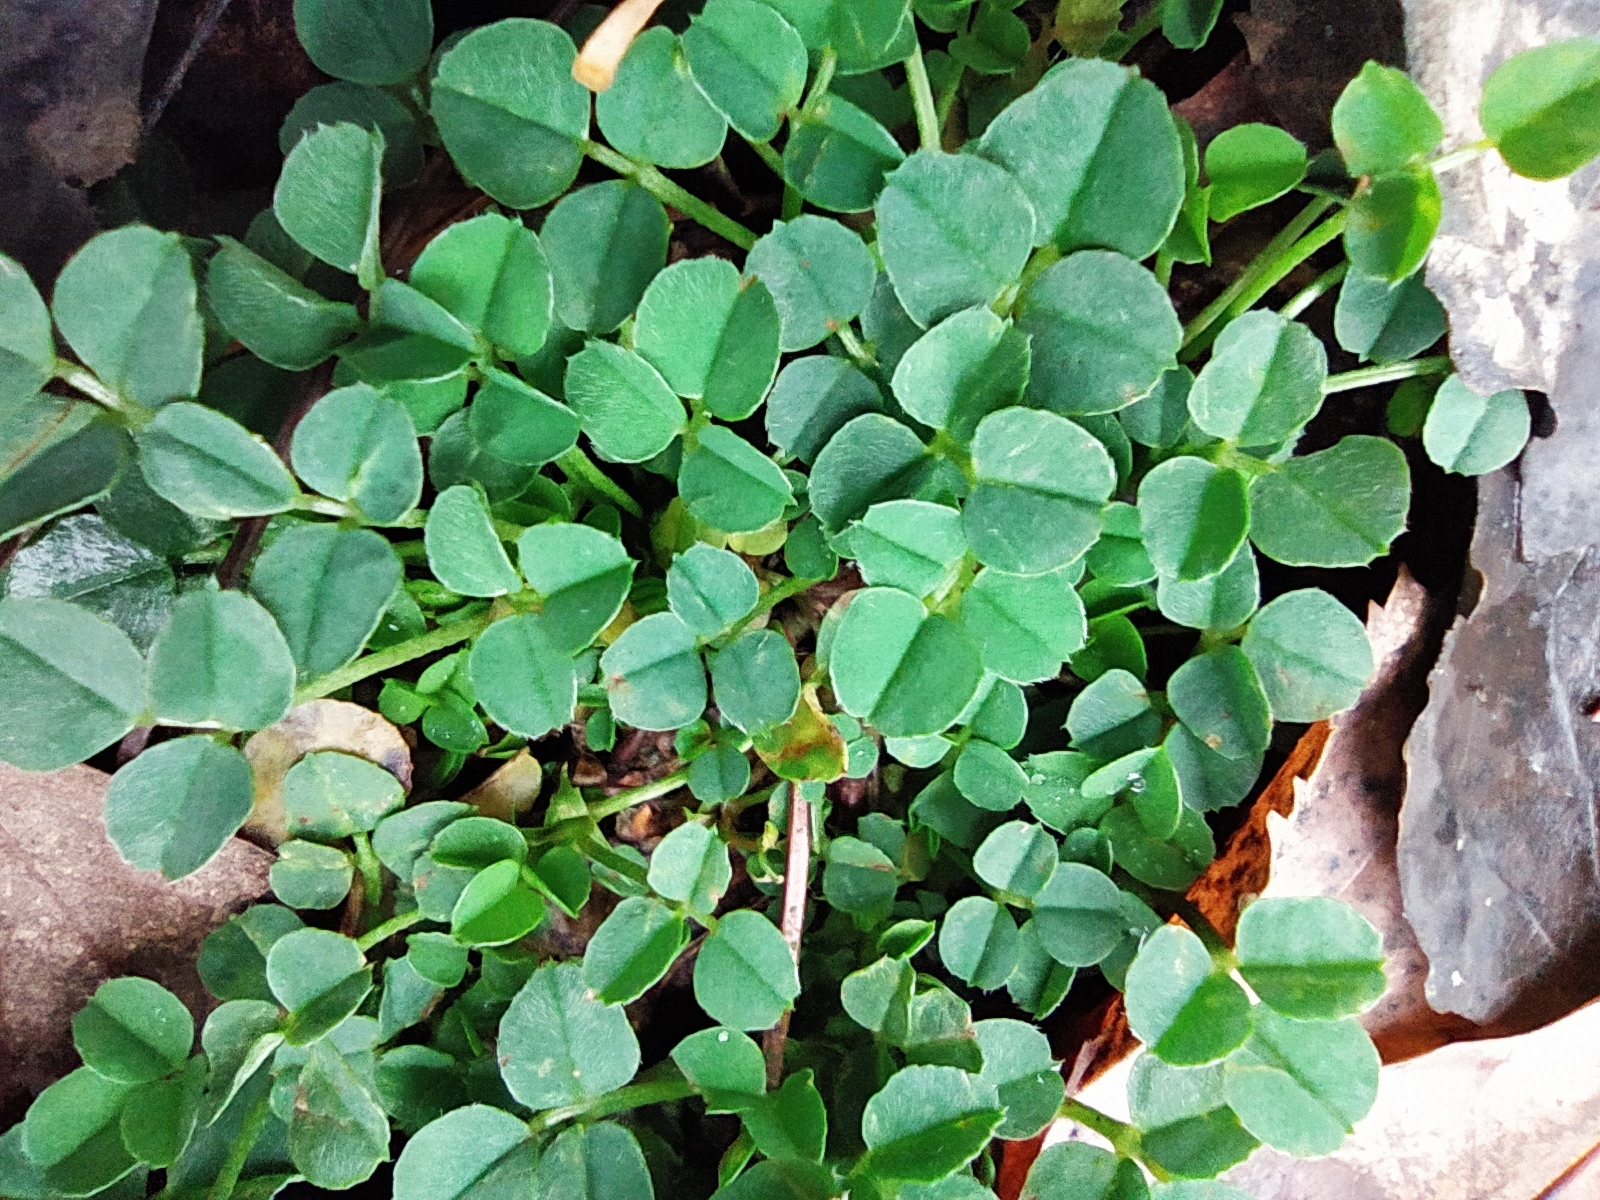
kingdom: Plantae
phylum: Tracheophyta
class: Magnoliopsida
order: Fabales
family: Fabaceae
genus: Medicago
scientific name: Medicago lupulina
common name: Black medick
